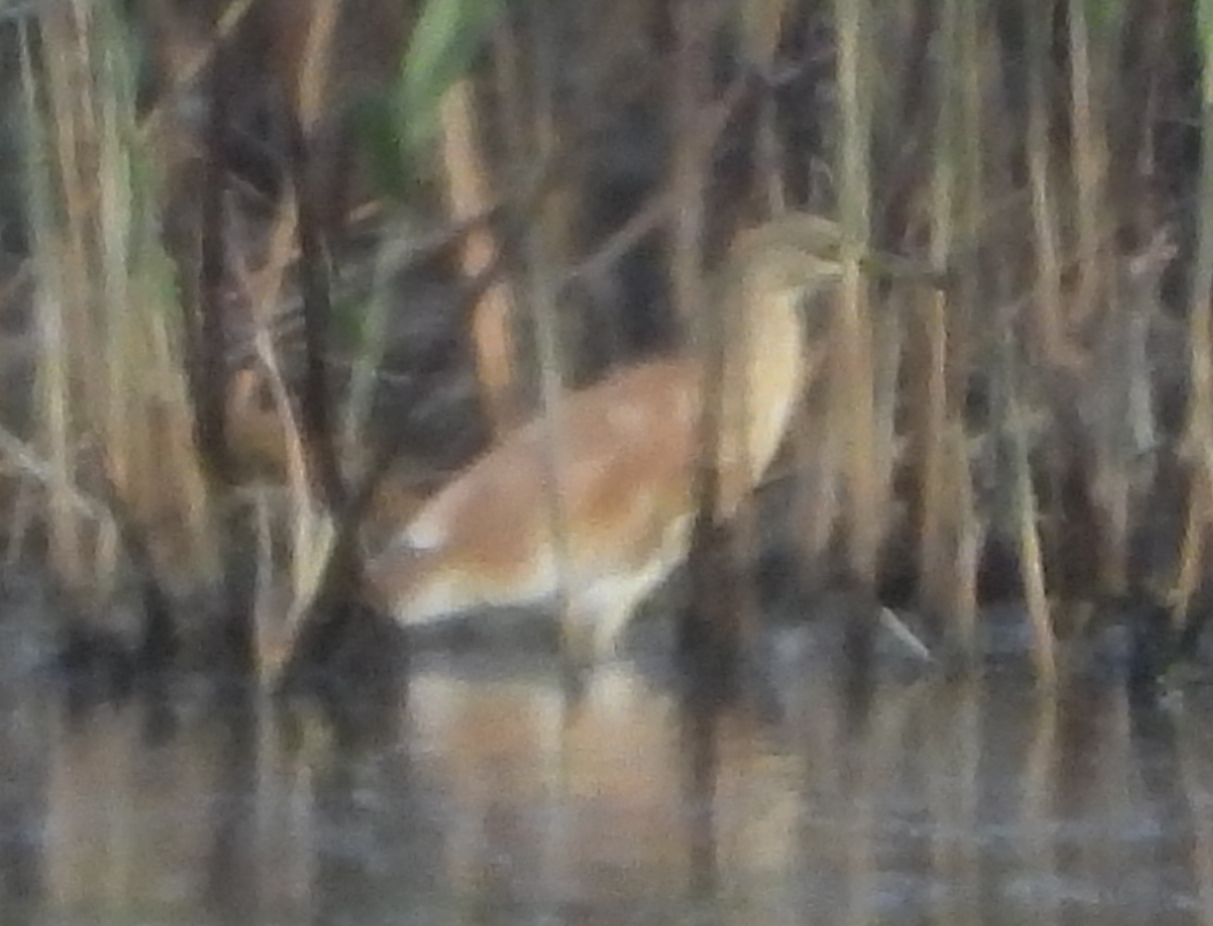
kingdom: Animalia
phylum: Chordata
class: Aves
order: Pelecaniformes
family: Ardeidae
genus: Ardeola
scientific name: Ardeola ralloides
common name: Squacco heron
